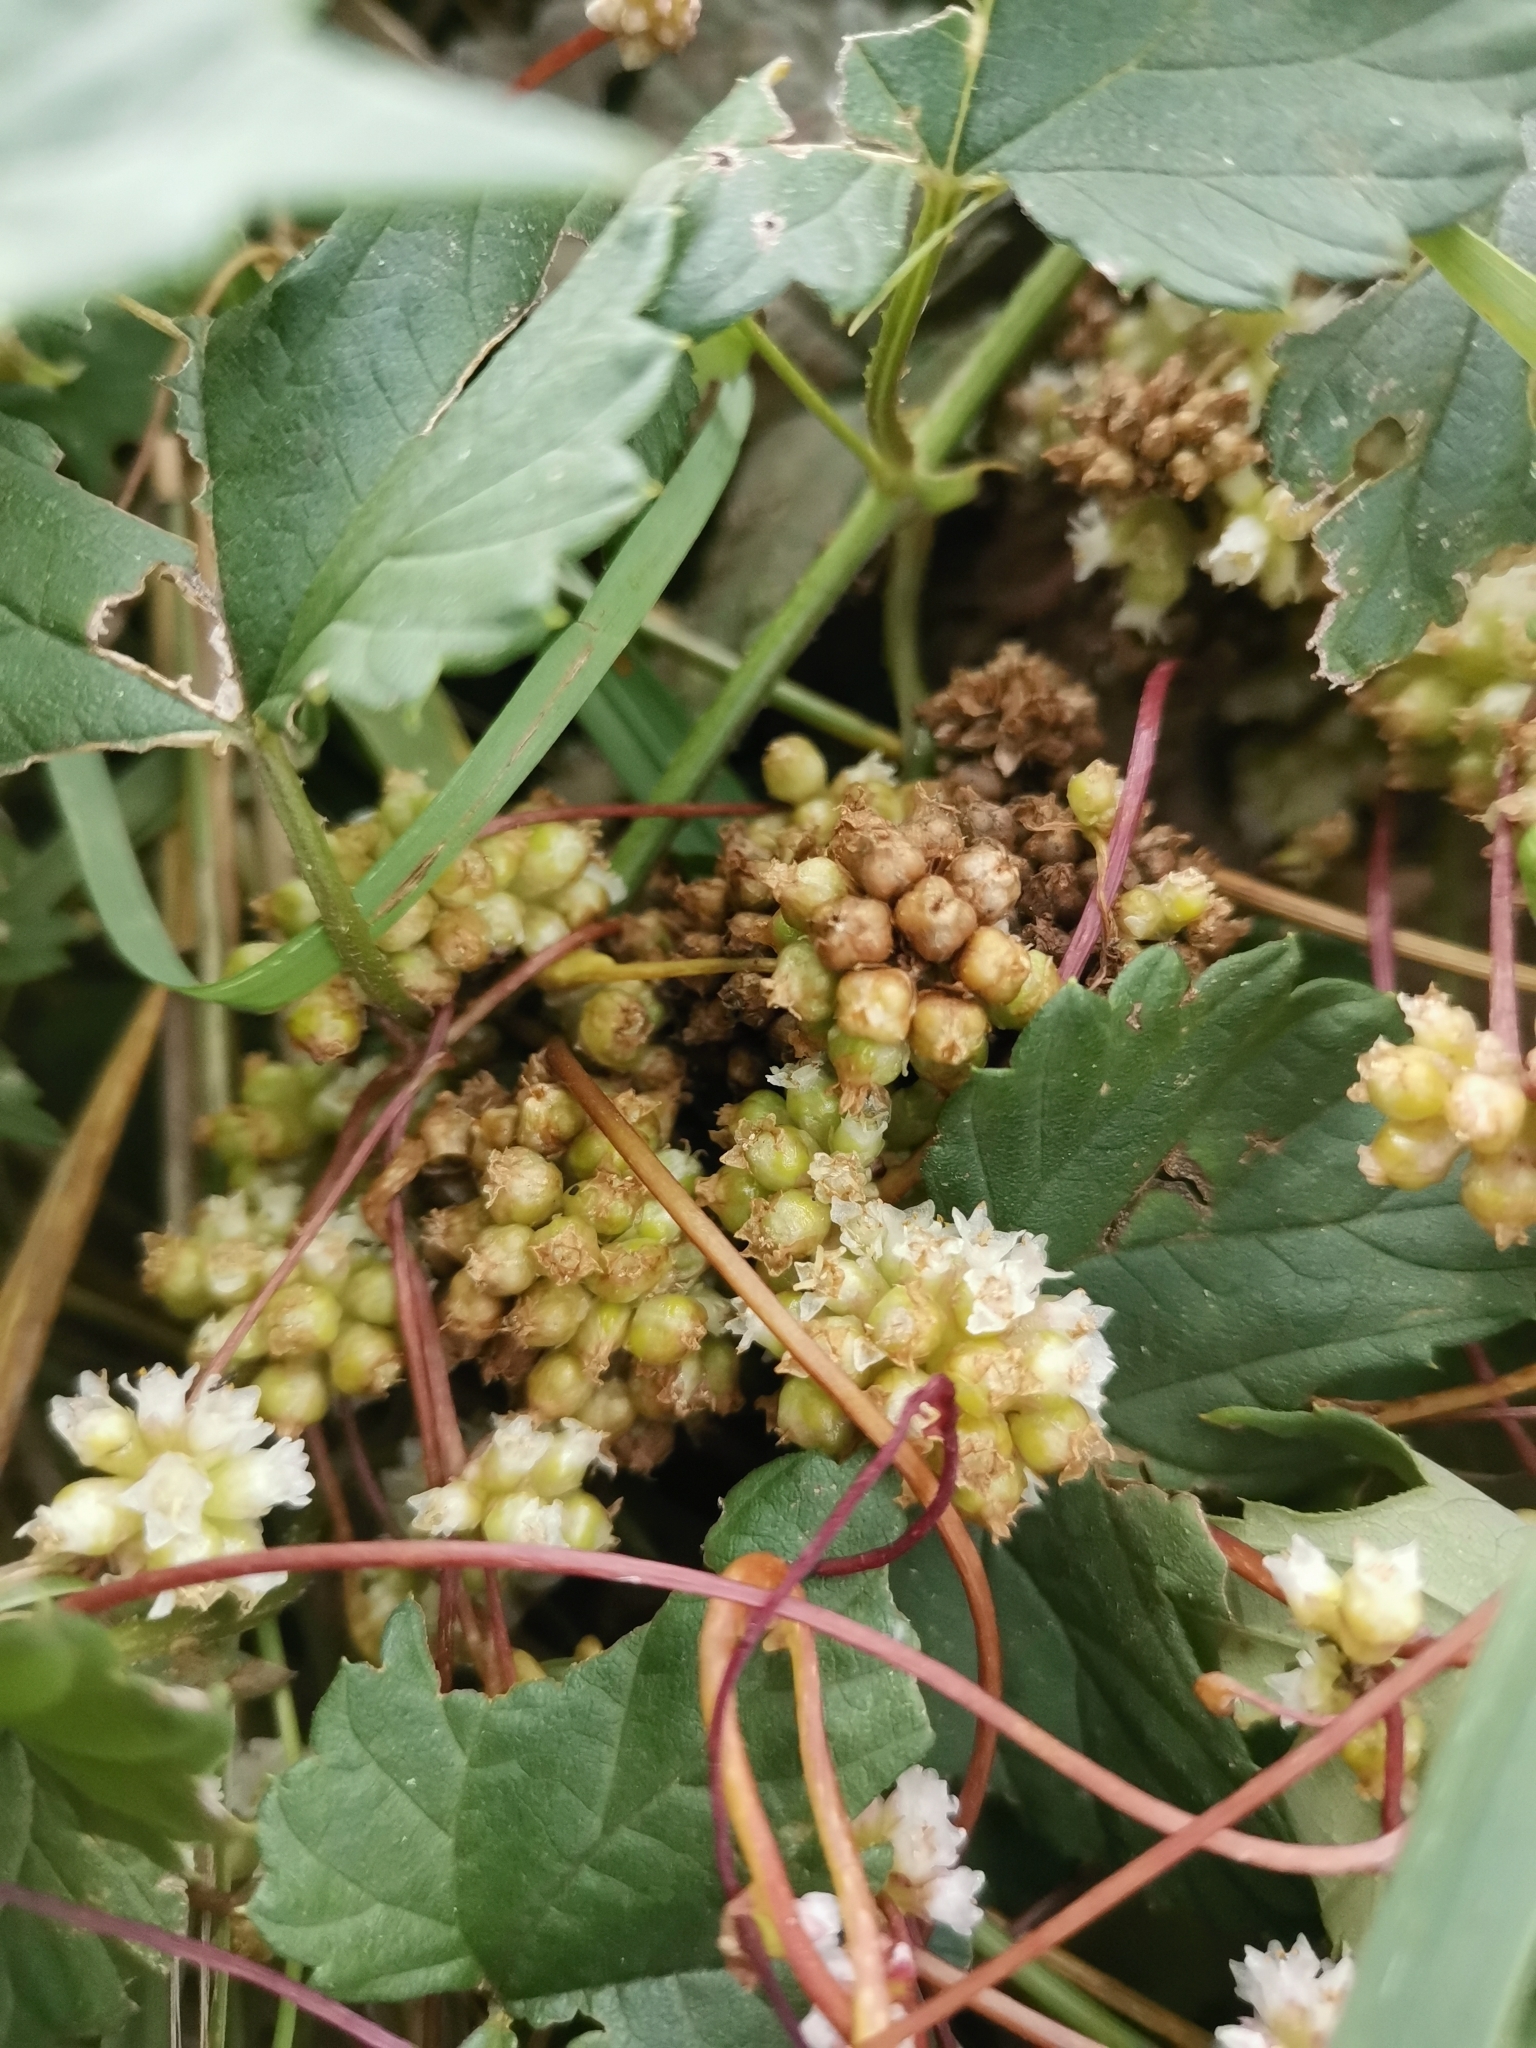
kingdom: Plantae
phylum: Tracheophyta
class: Magnoliopsida
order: Solanales
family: Convolvulaceae
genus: Cuscuta
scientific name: Cuscuta europaea
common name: Greater dodder
